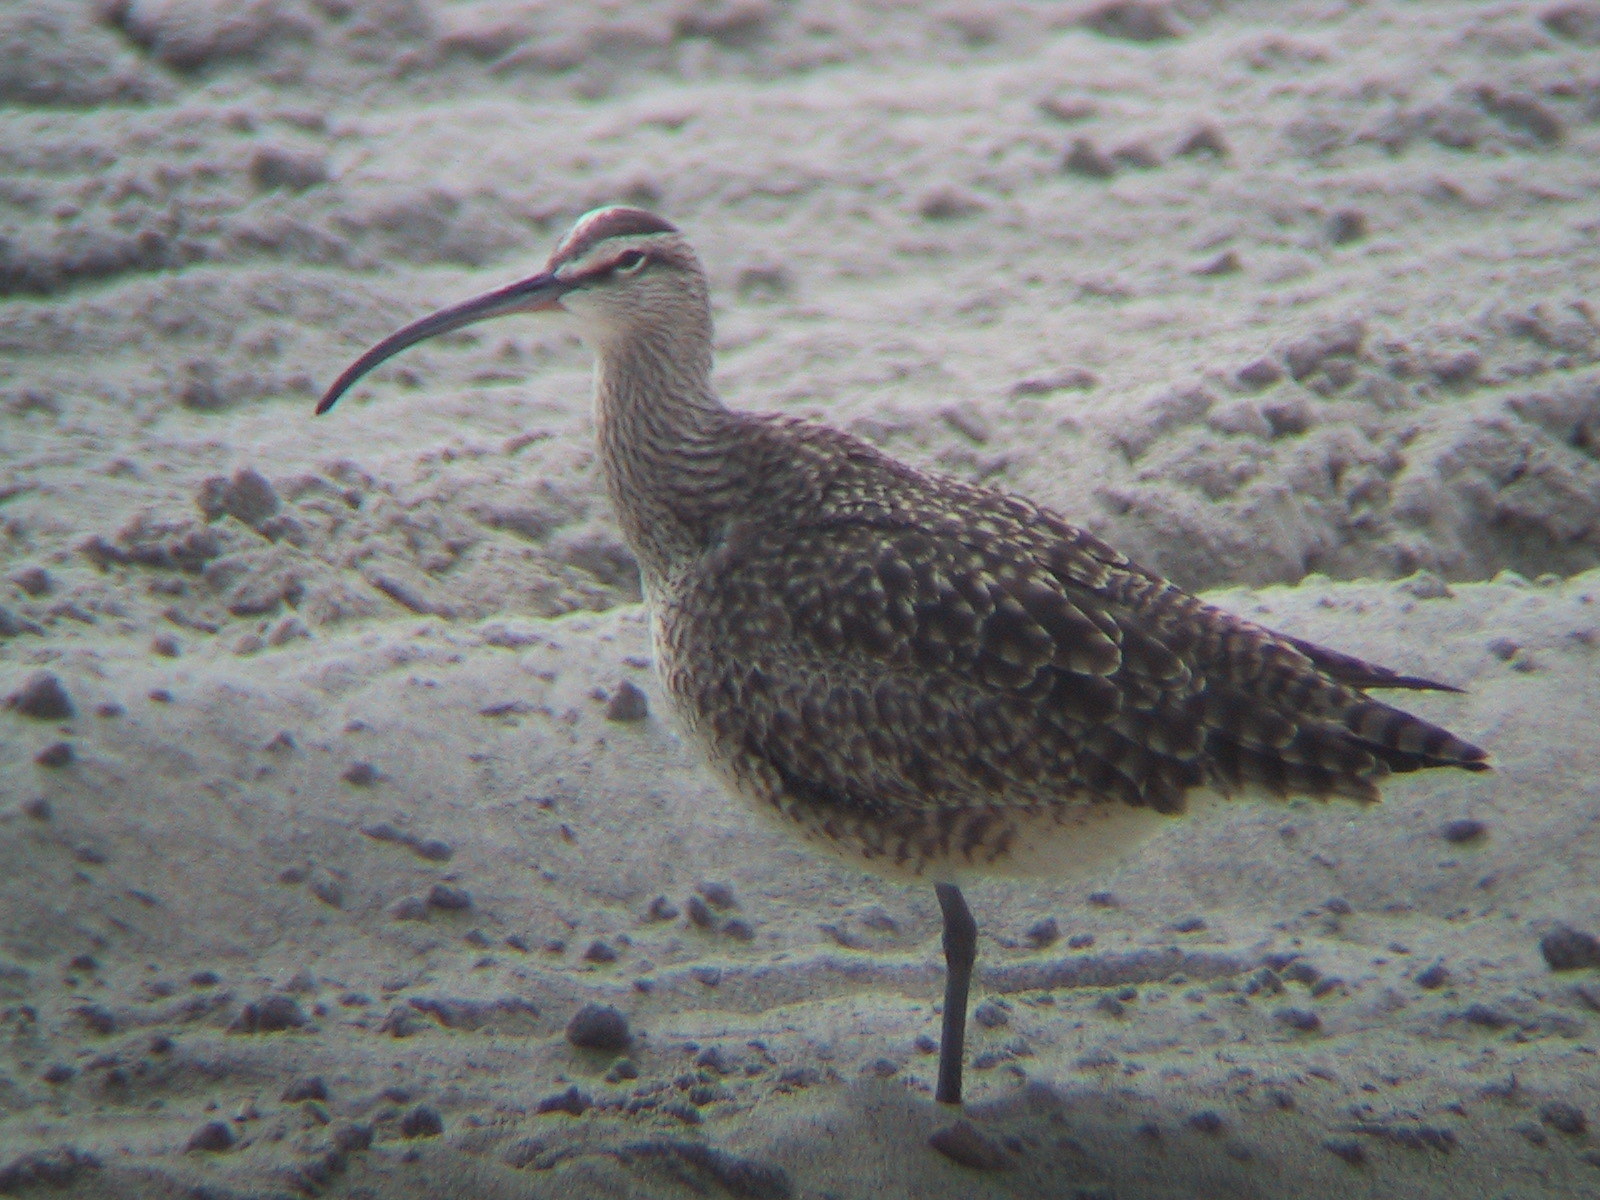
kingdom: Animalia
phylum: Chordata
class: Aves
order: Charadriiformes
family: Scolopacidae
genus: Numenius
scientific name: Numenius phaeopus
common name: Whimbrel
